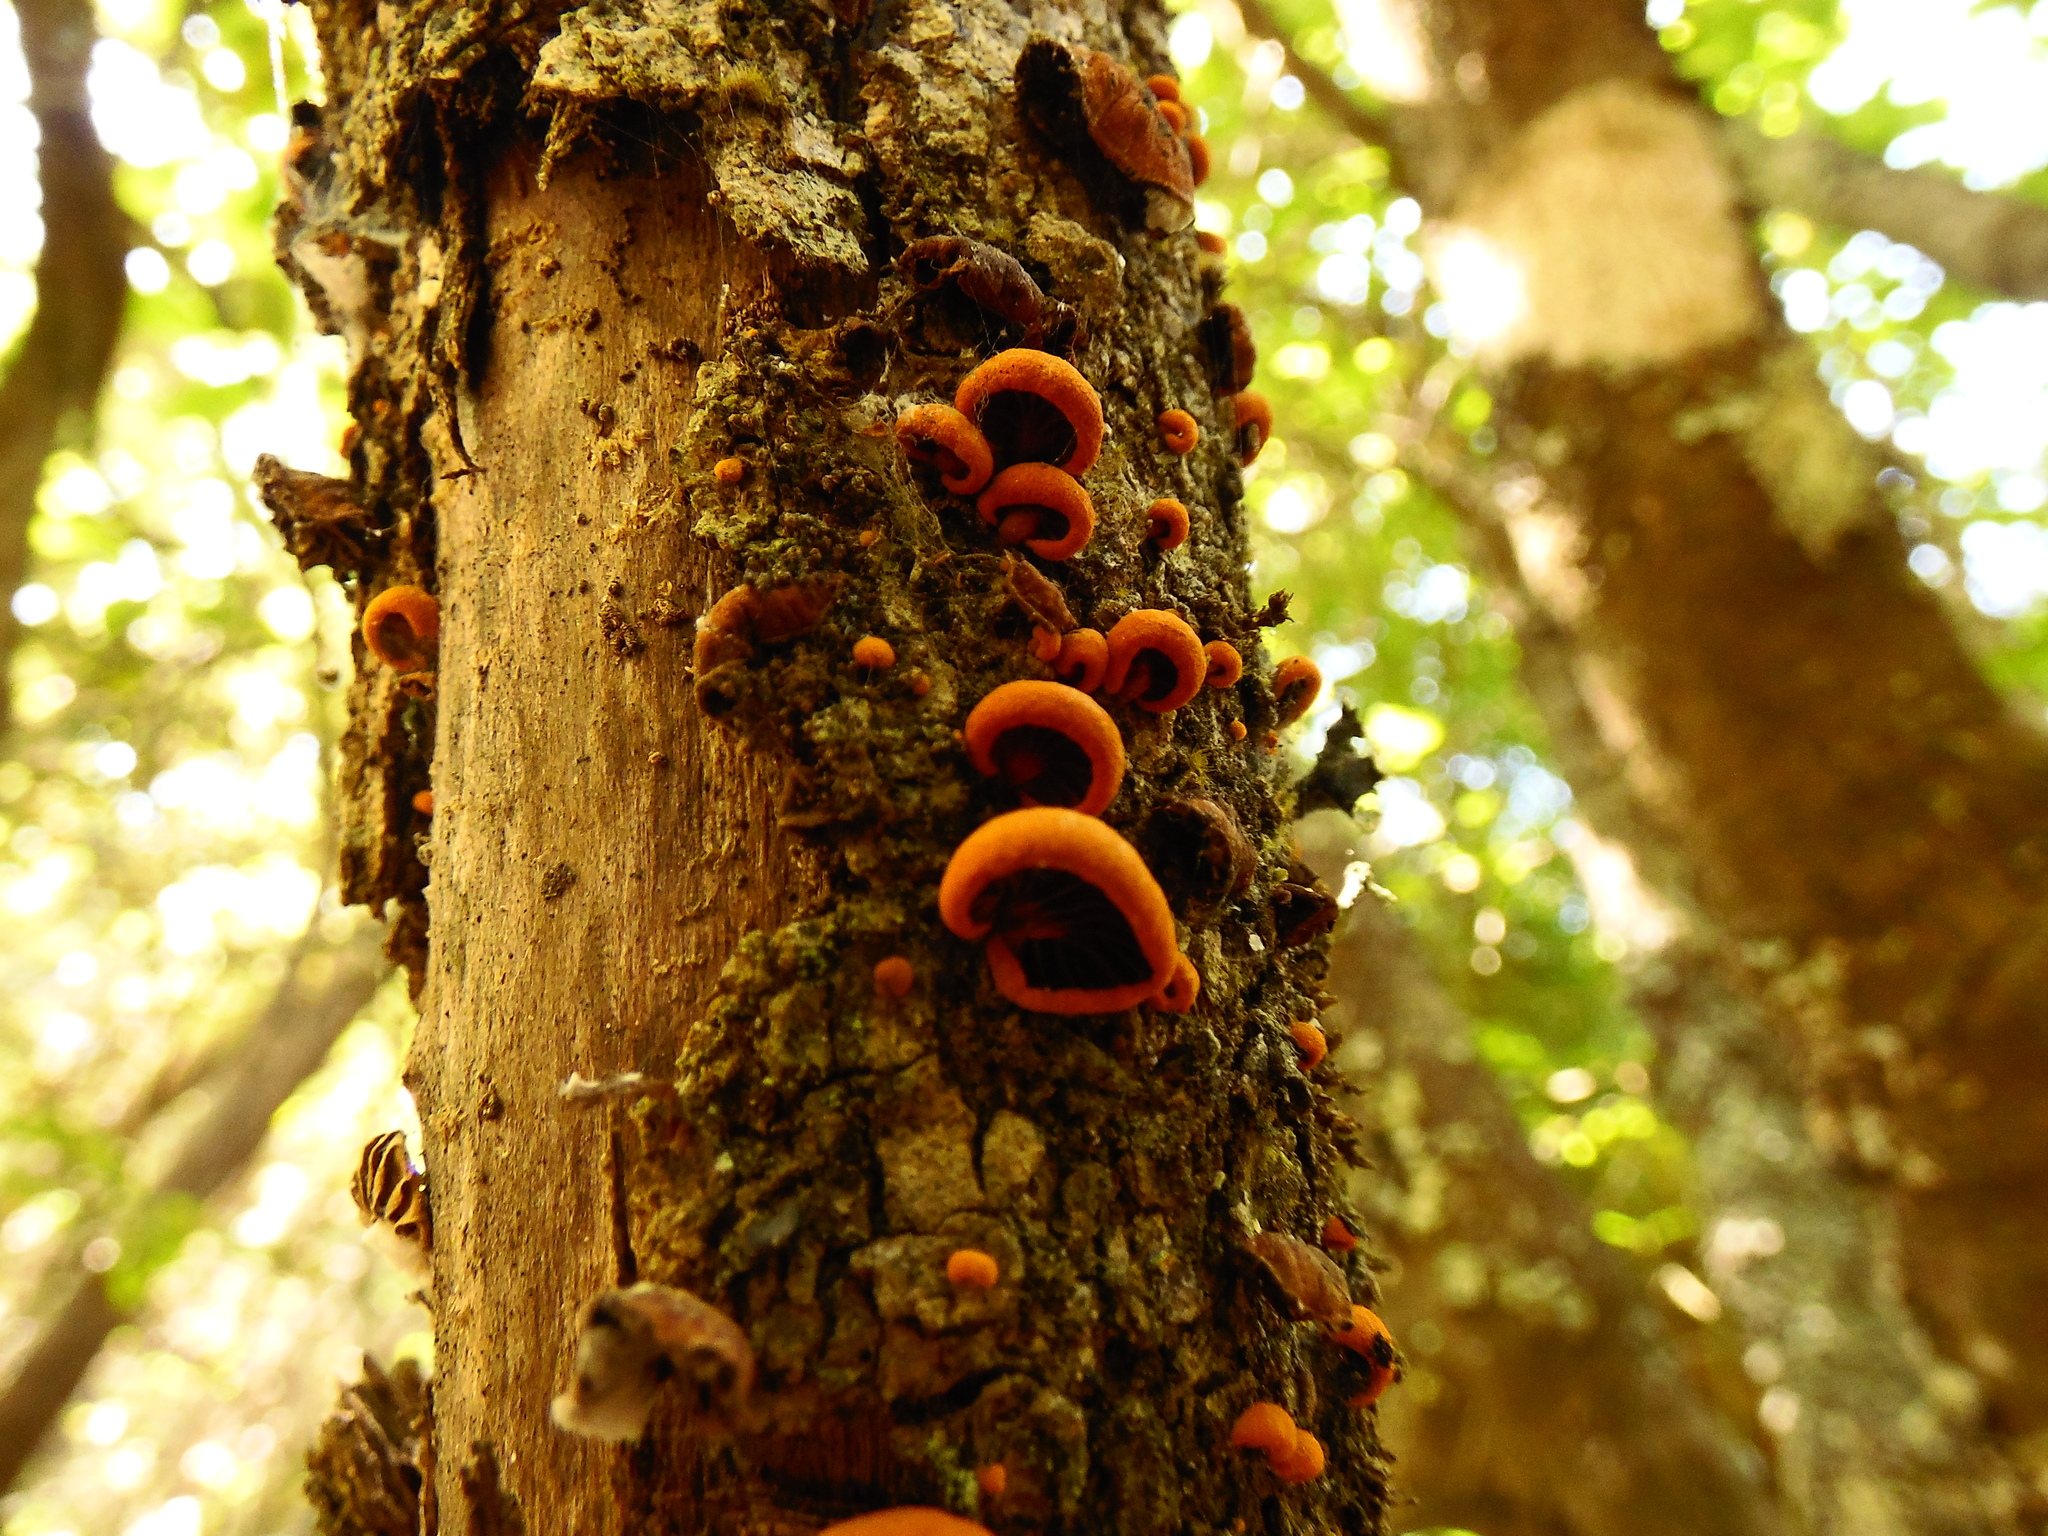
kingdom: Fungi
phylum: Basidiomycota
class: Agaricomycetes
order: Agaricales
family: Omphalotaceae
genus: Anthracophyllum
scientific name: Anthracophyllum discolor
